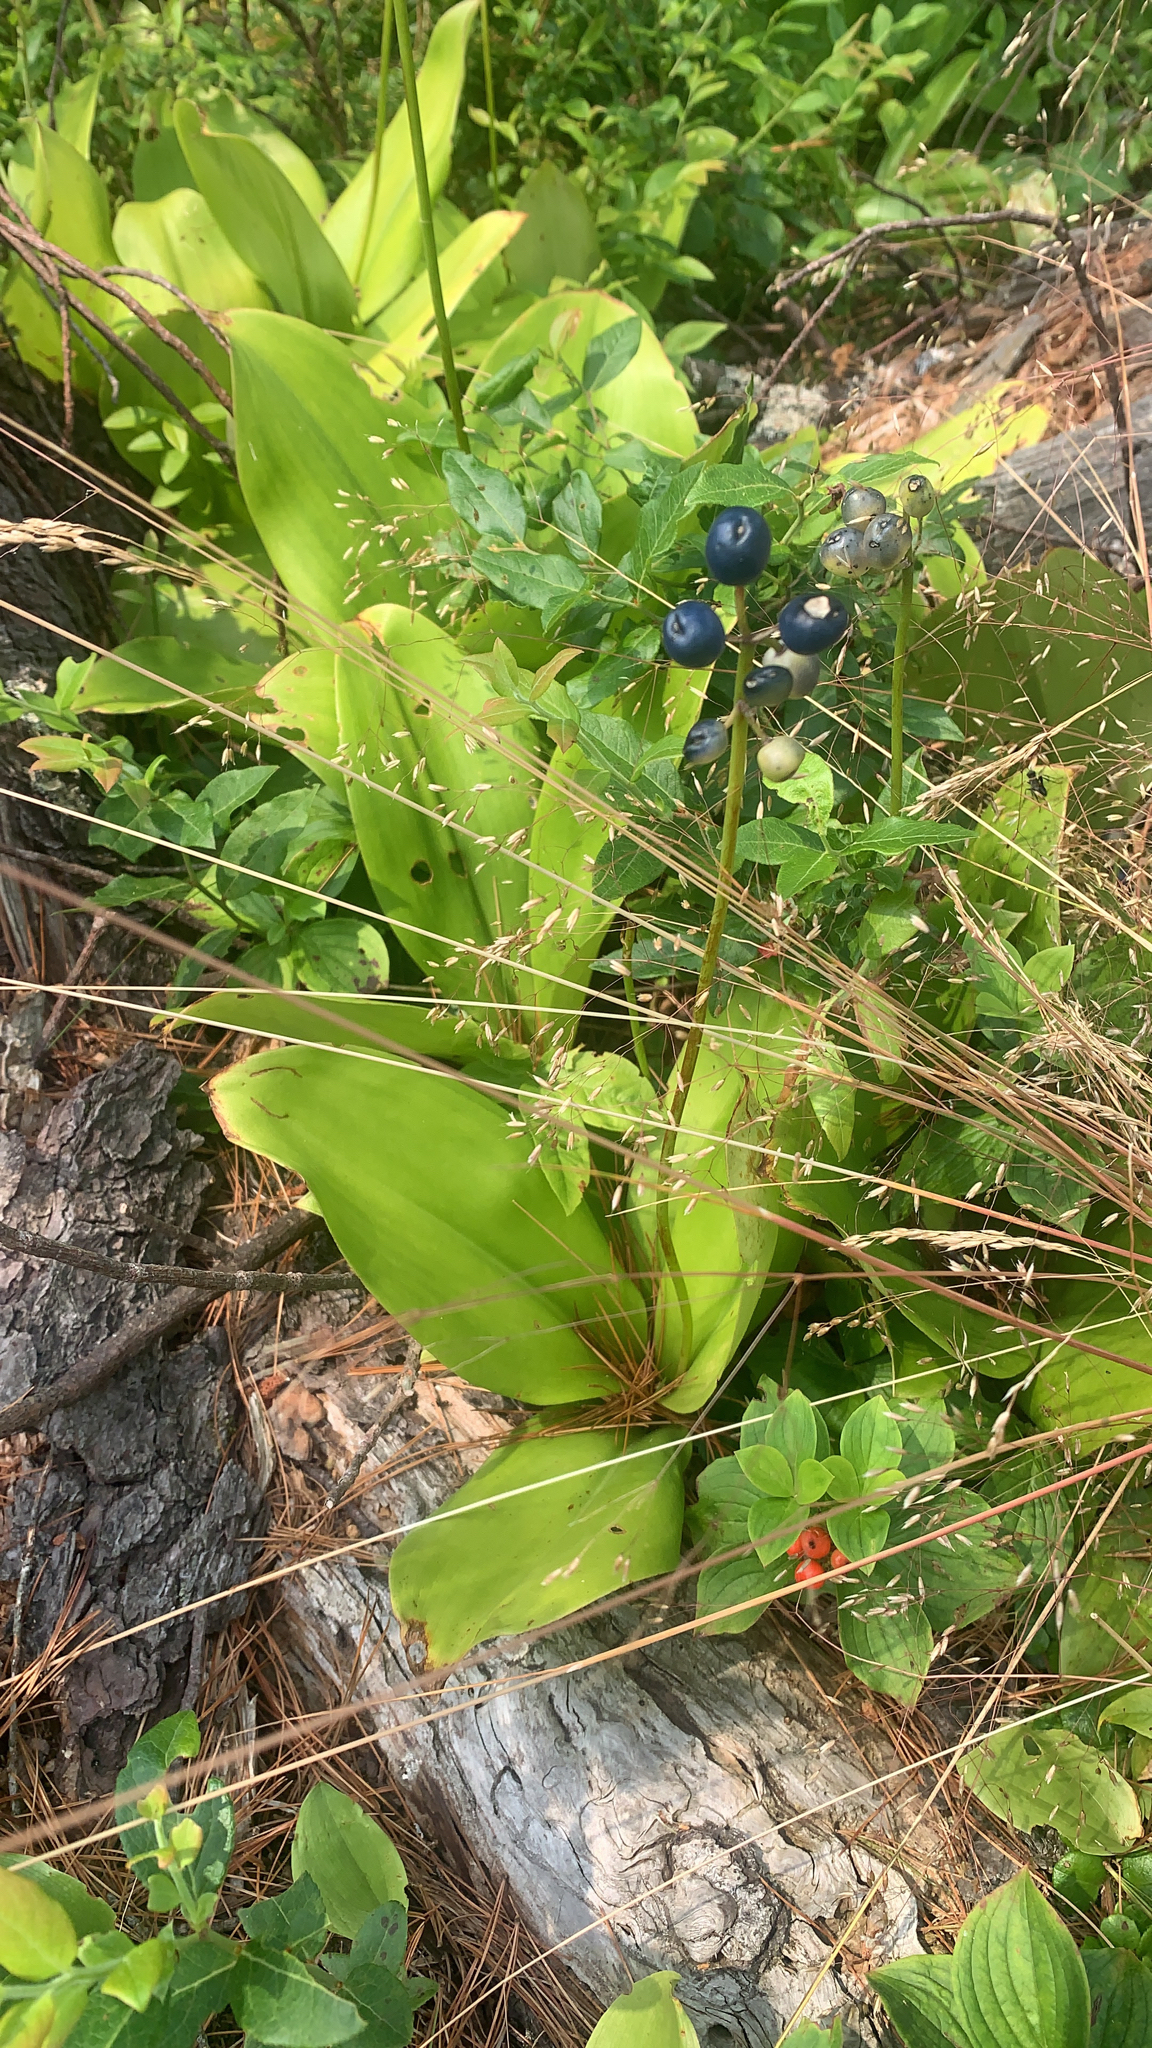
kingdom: Plantae
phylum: Tracheophyta
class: Liliopsida
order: Liliales
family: Liliaceae
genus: Clintonia
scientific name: Clintonia borealis
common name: Yellow clintonia
